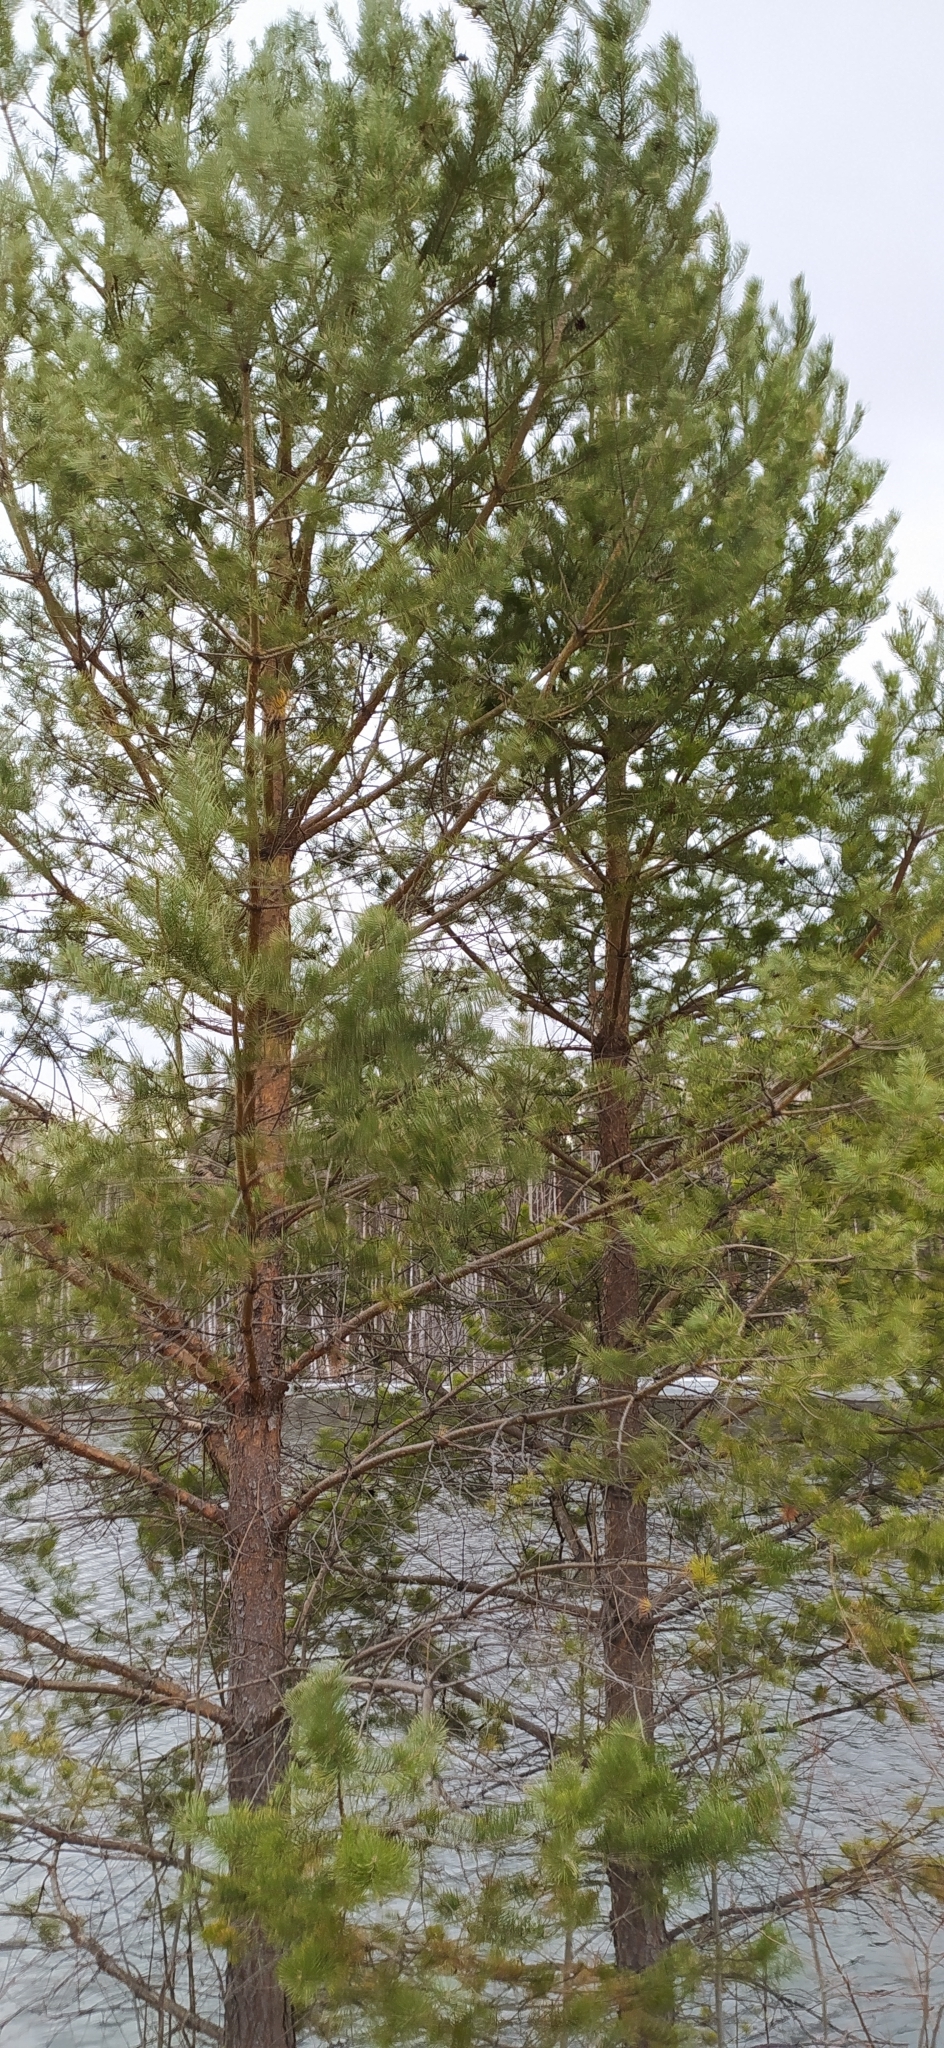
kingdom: Plantae
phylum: Tracheophyta
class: Pinopsida
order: Pinales
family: Pinaceae
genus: Pinus
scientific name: Pinus sylvestris
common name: Scots pine
